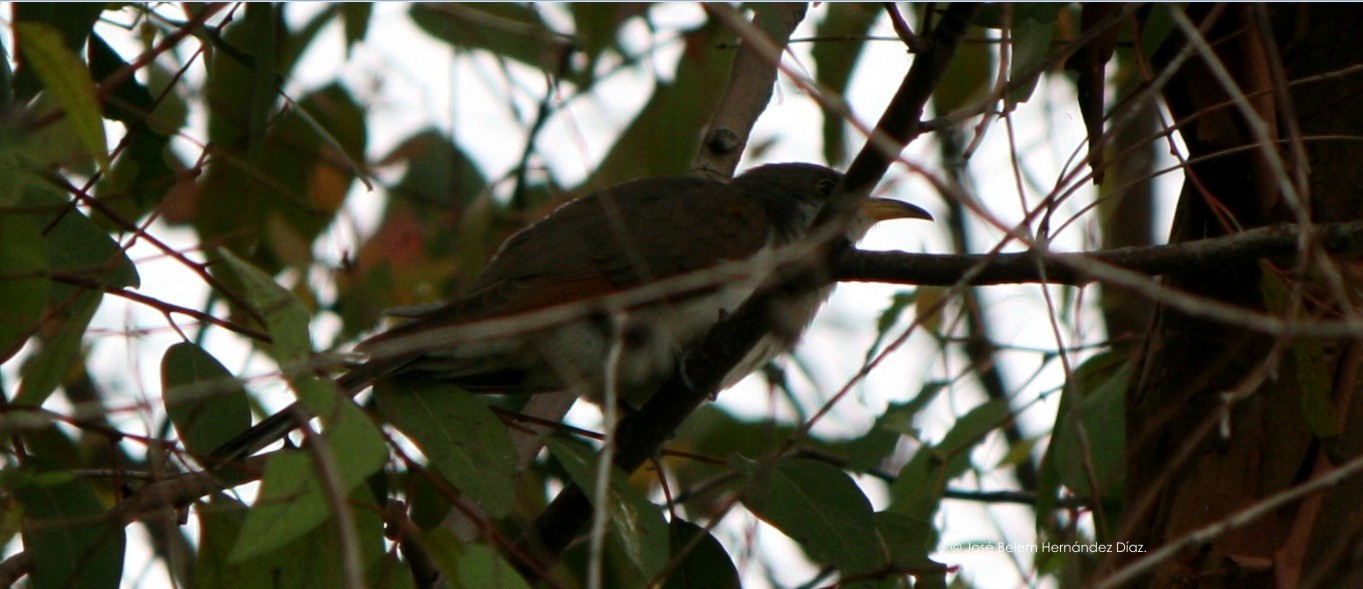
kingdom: Animalia
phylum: Chordata
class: Aves
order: Cuculiformes
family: Cuculidae
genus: Coccyzus
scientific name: Coccyzus americanus
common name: Yellow-billed cuckoo
